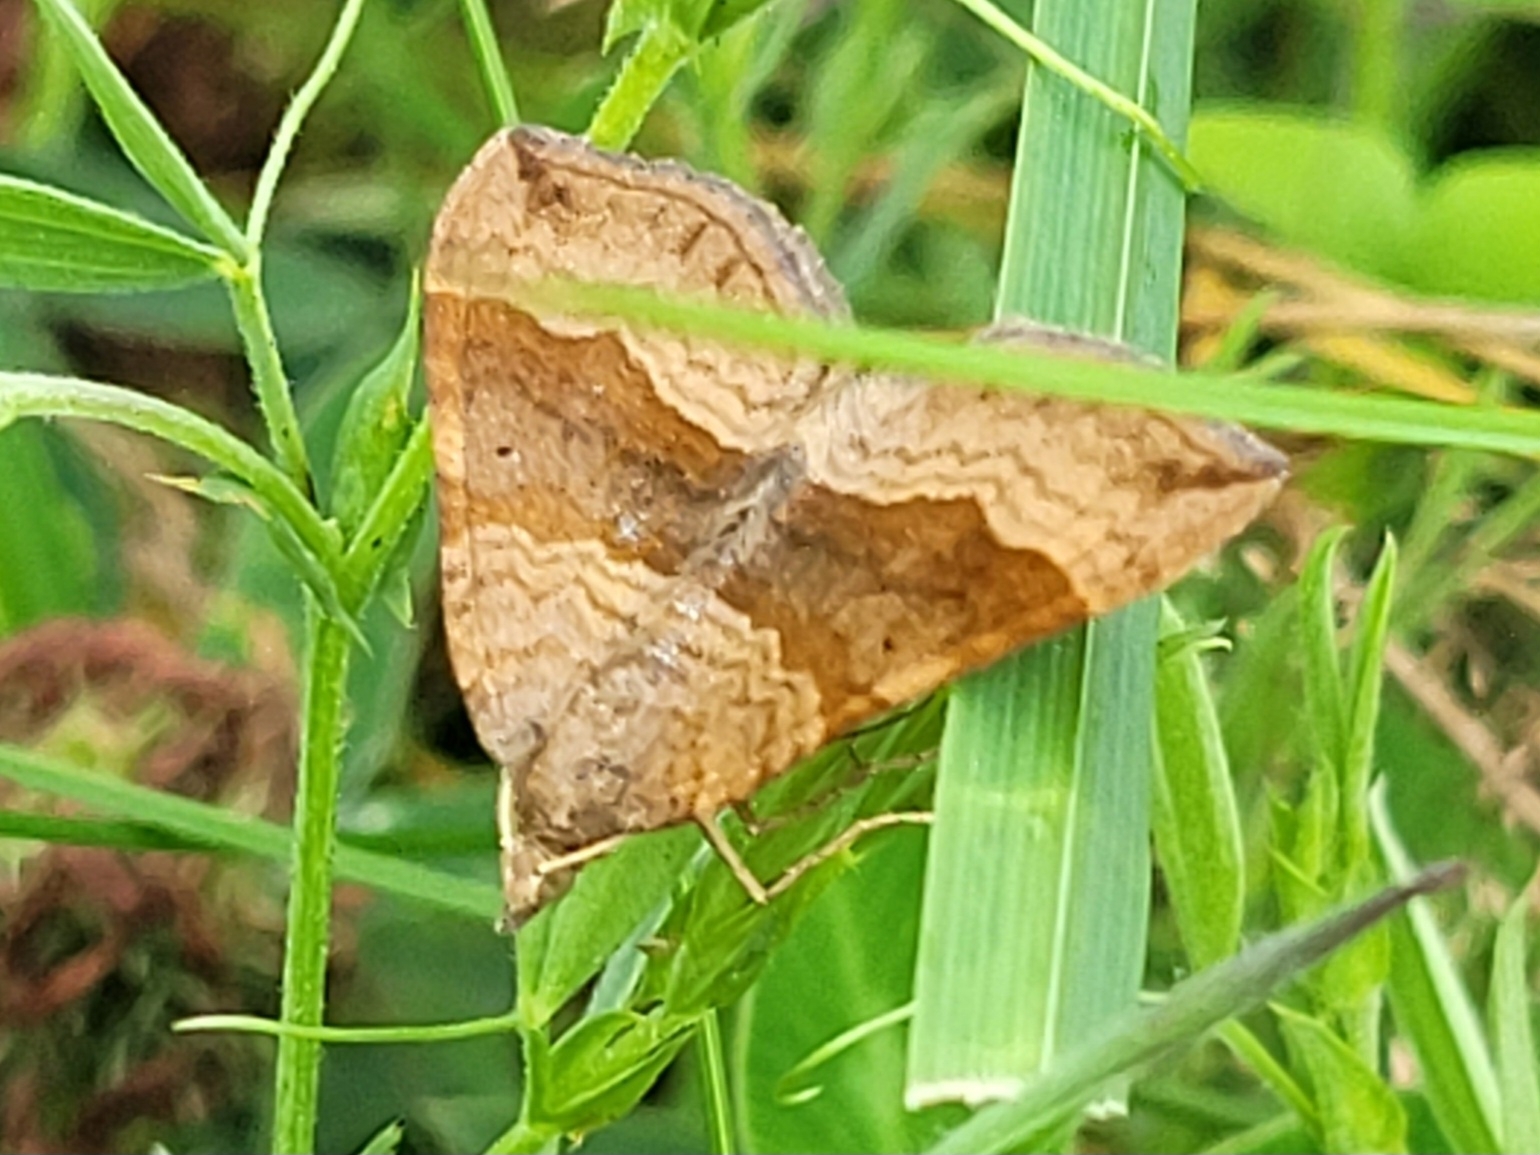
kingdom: Animalia
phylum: Arthropoda
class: Insecta
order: Lepidoptera
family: Geometridae
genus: Scotopteryx
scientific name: Scotopteryx chenopodiata
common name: Shaded broad-bar
